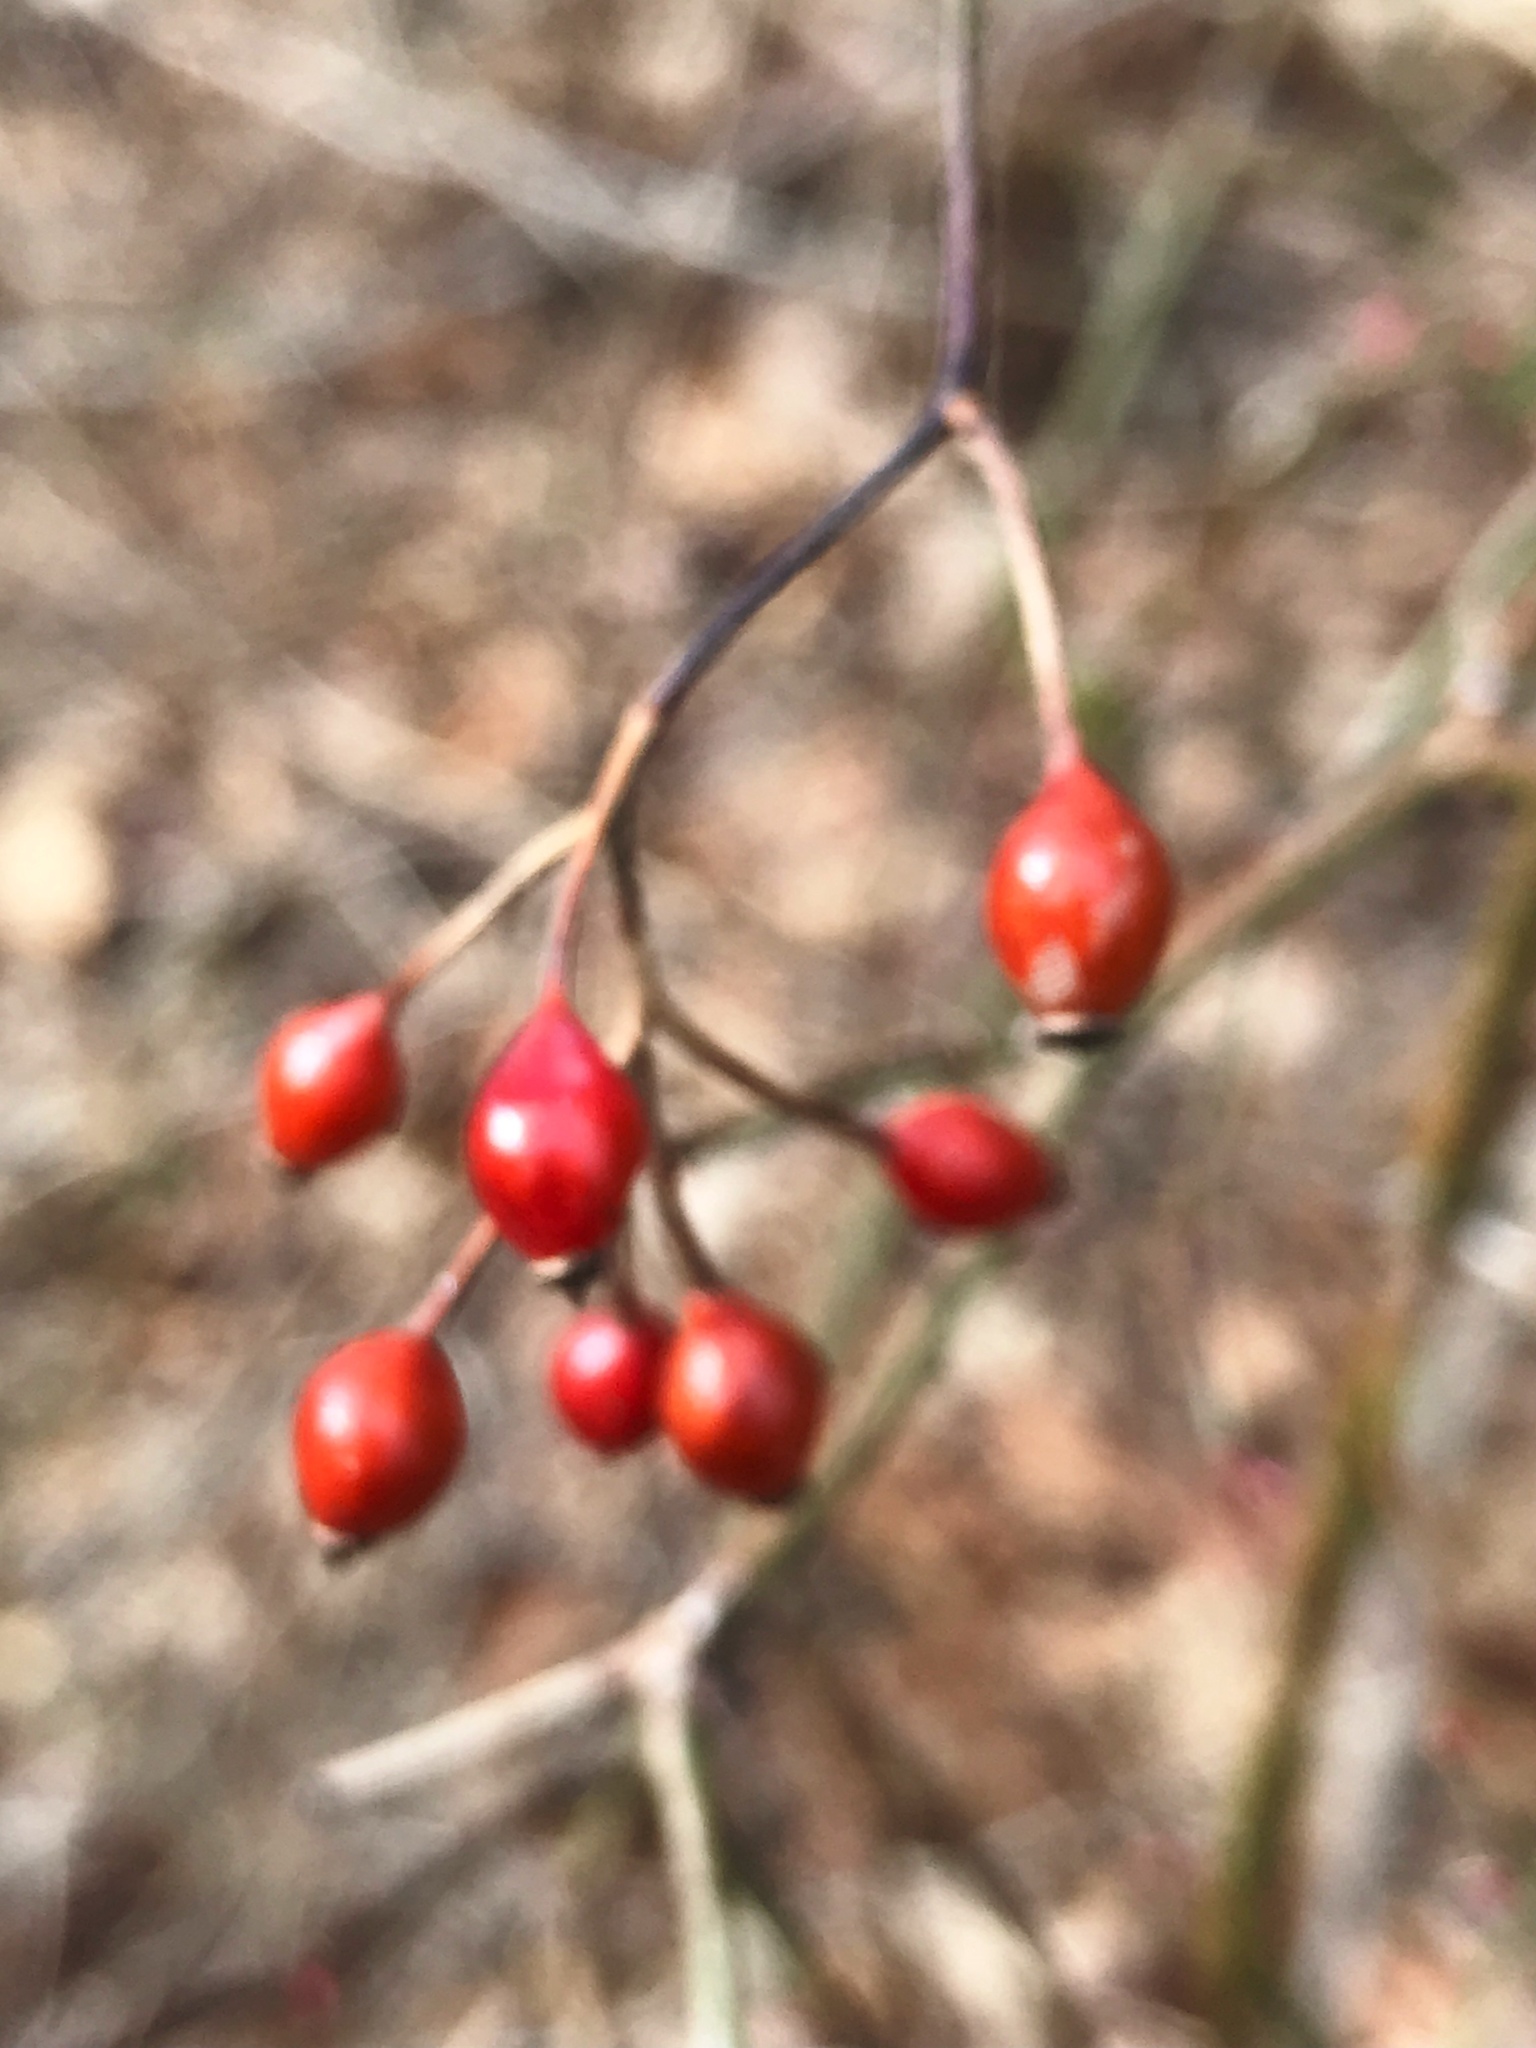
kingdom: Plantae
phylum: Tracheophyta
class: Magnoliopsida
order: Rosales
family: Rosaceae
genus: Rosa
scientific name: Rosa multiflora
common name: Multiflora rose
